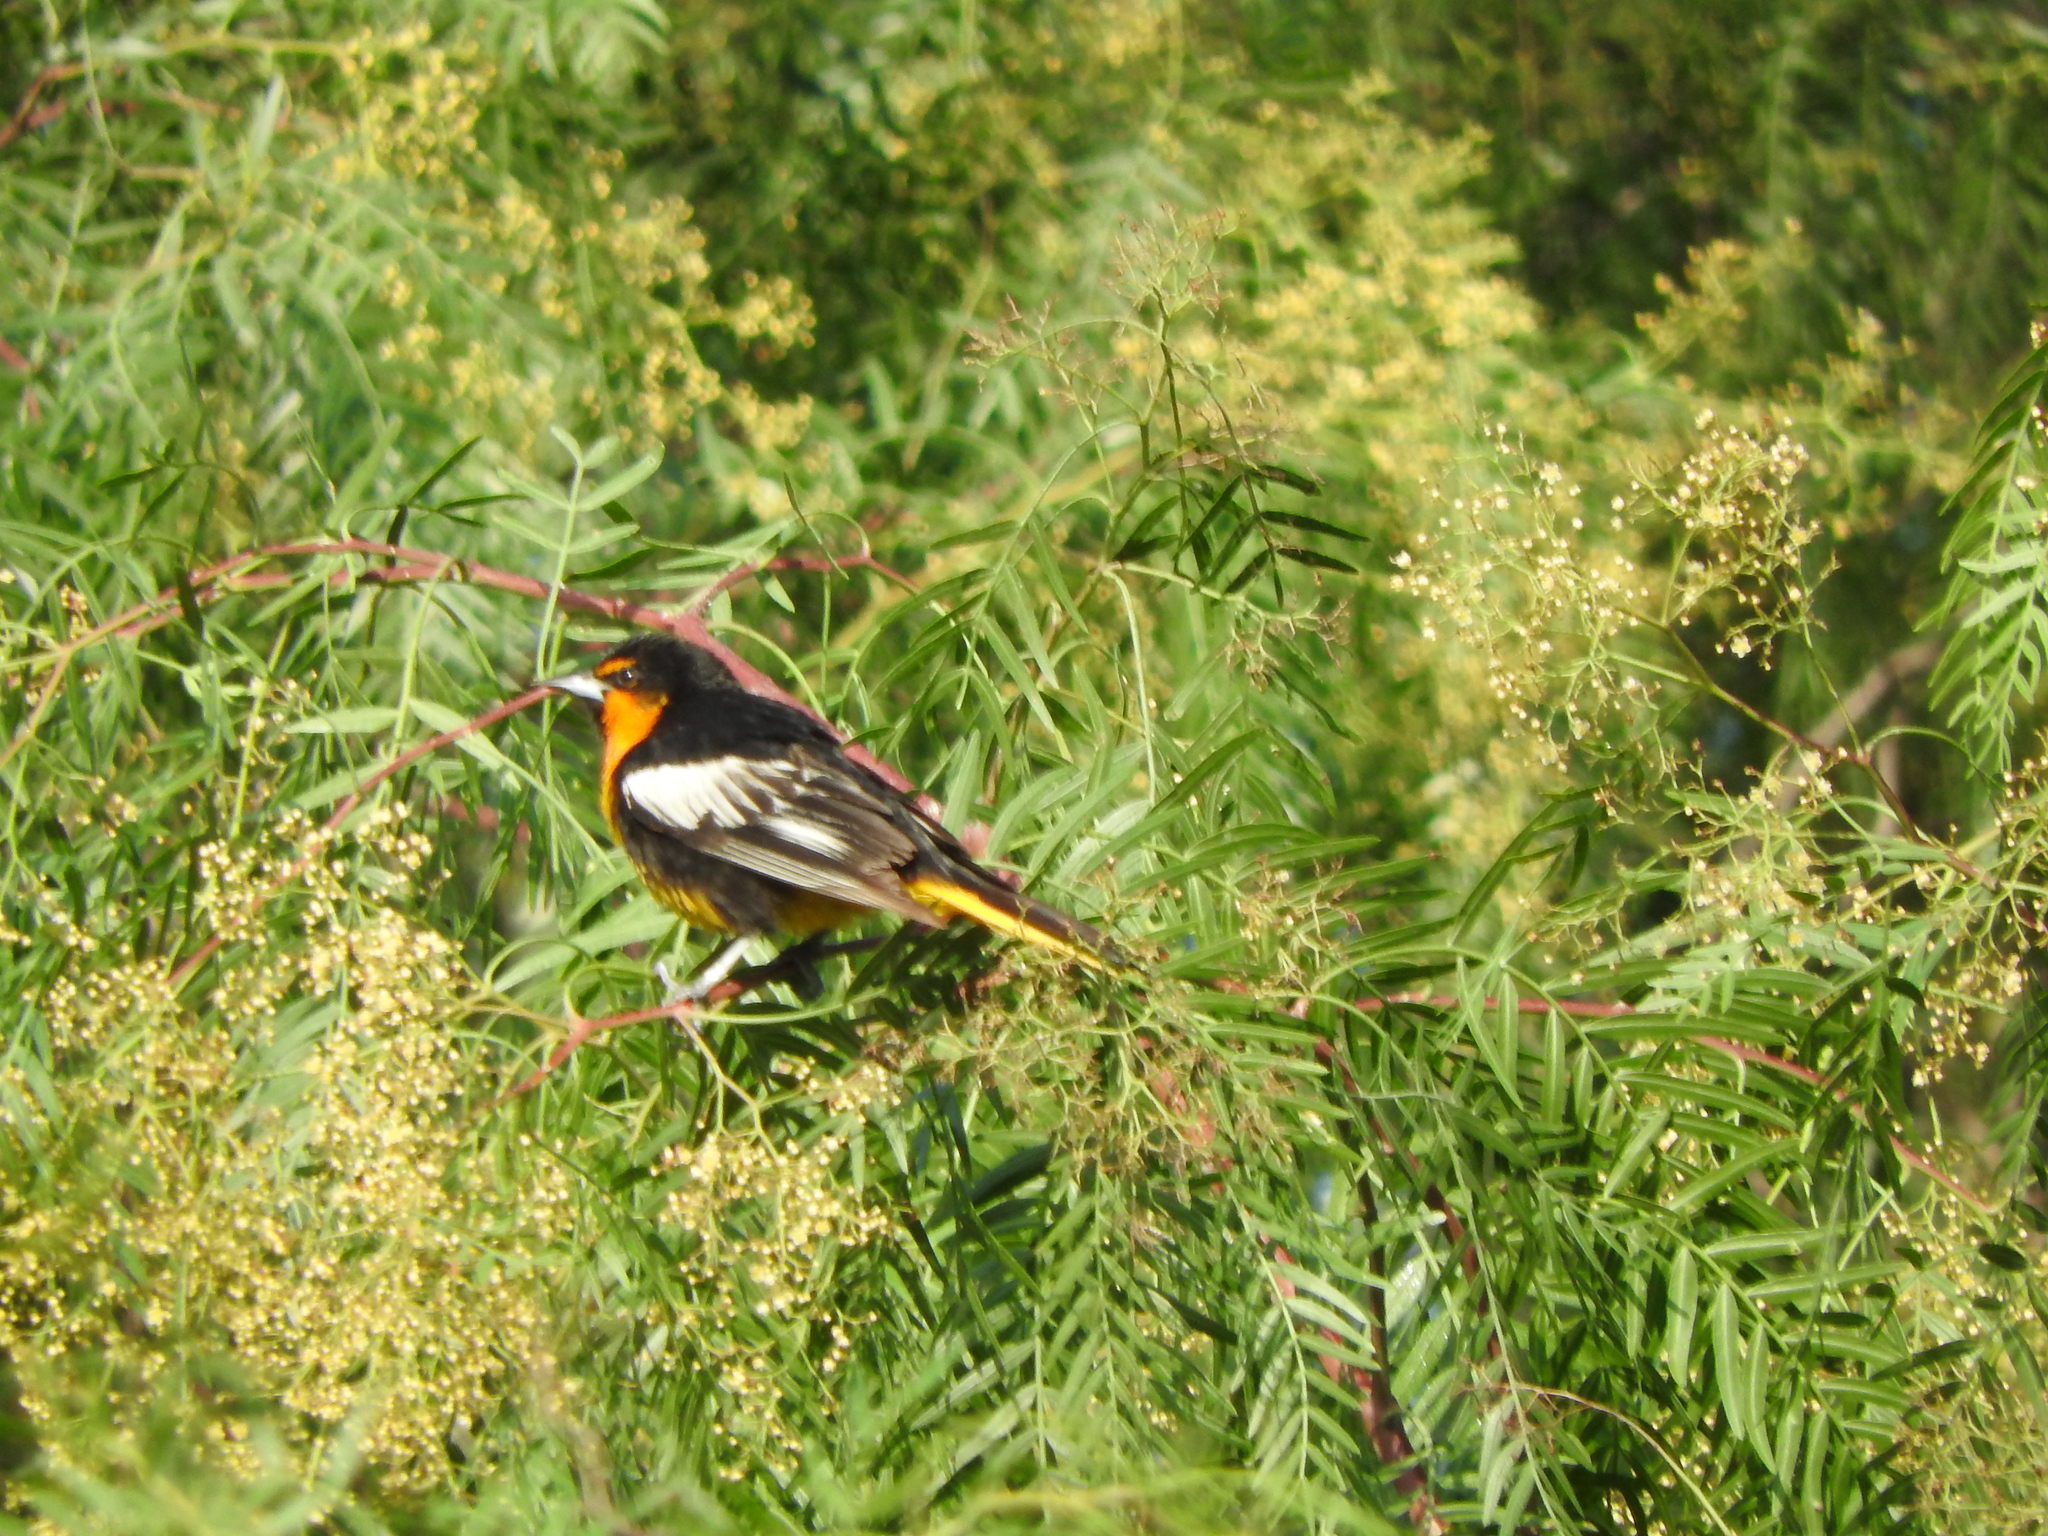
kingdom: Animalia
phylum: Chordata
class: Aves
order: Passeriformes
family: Icteridae
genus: Icterus
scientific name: Icterus abeillei
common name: Black-backed oriole
